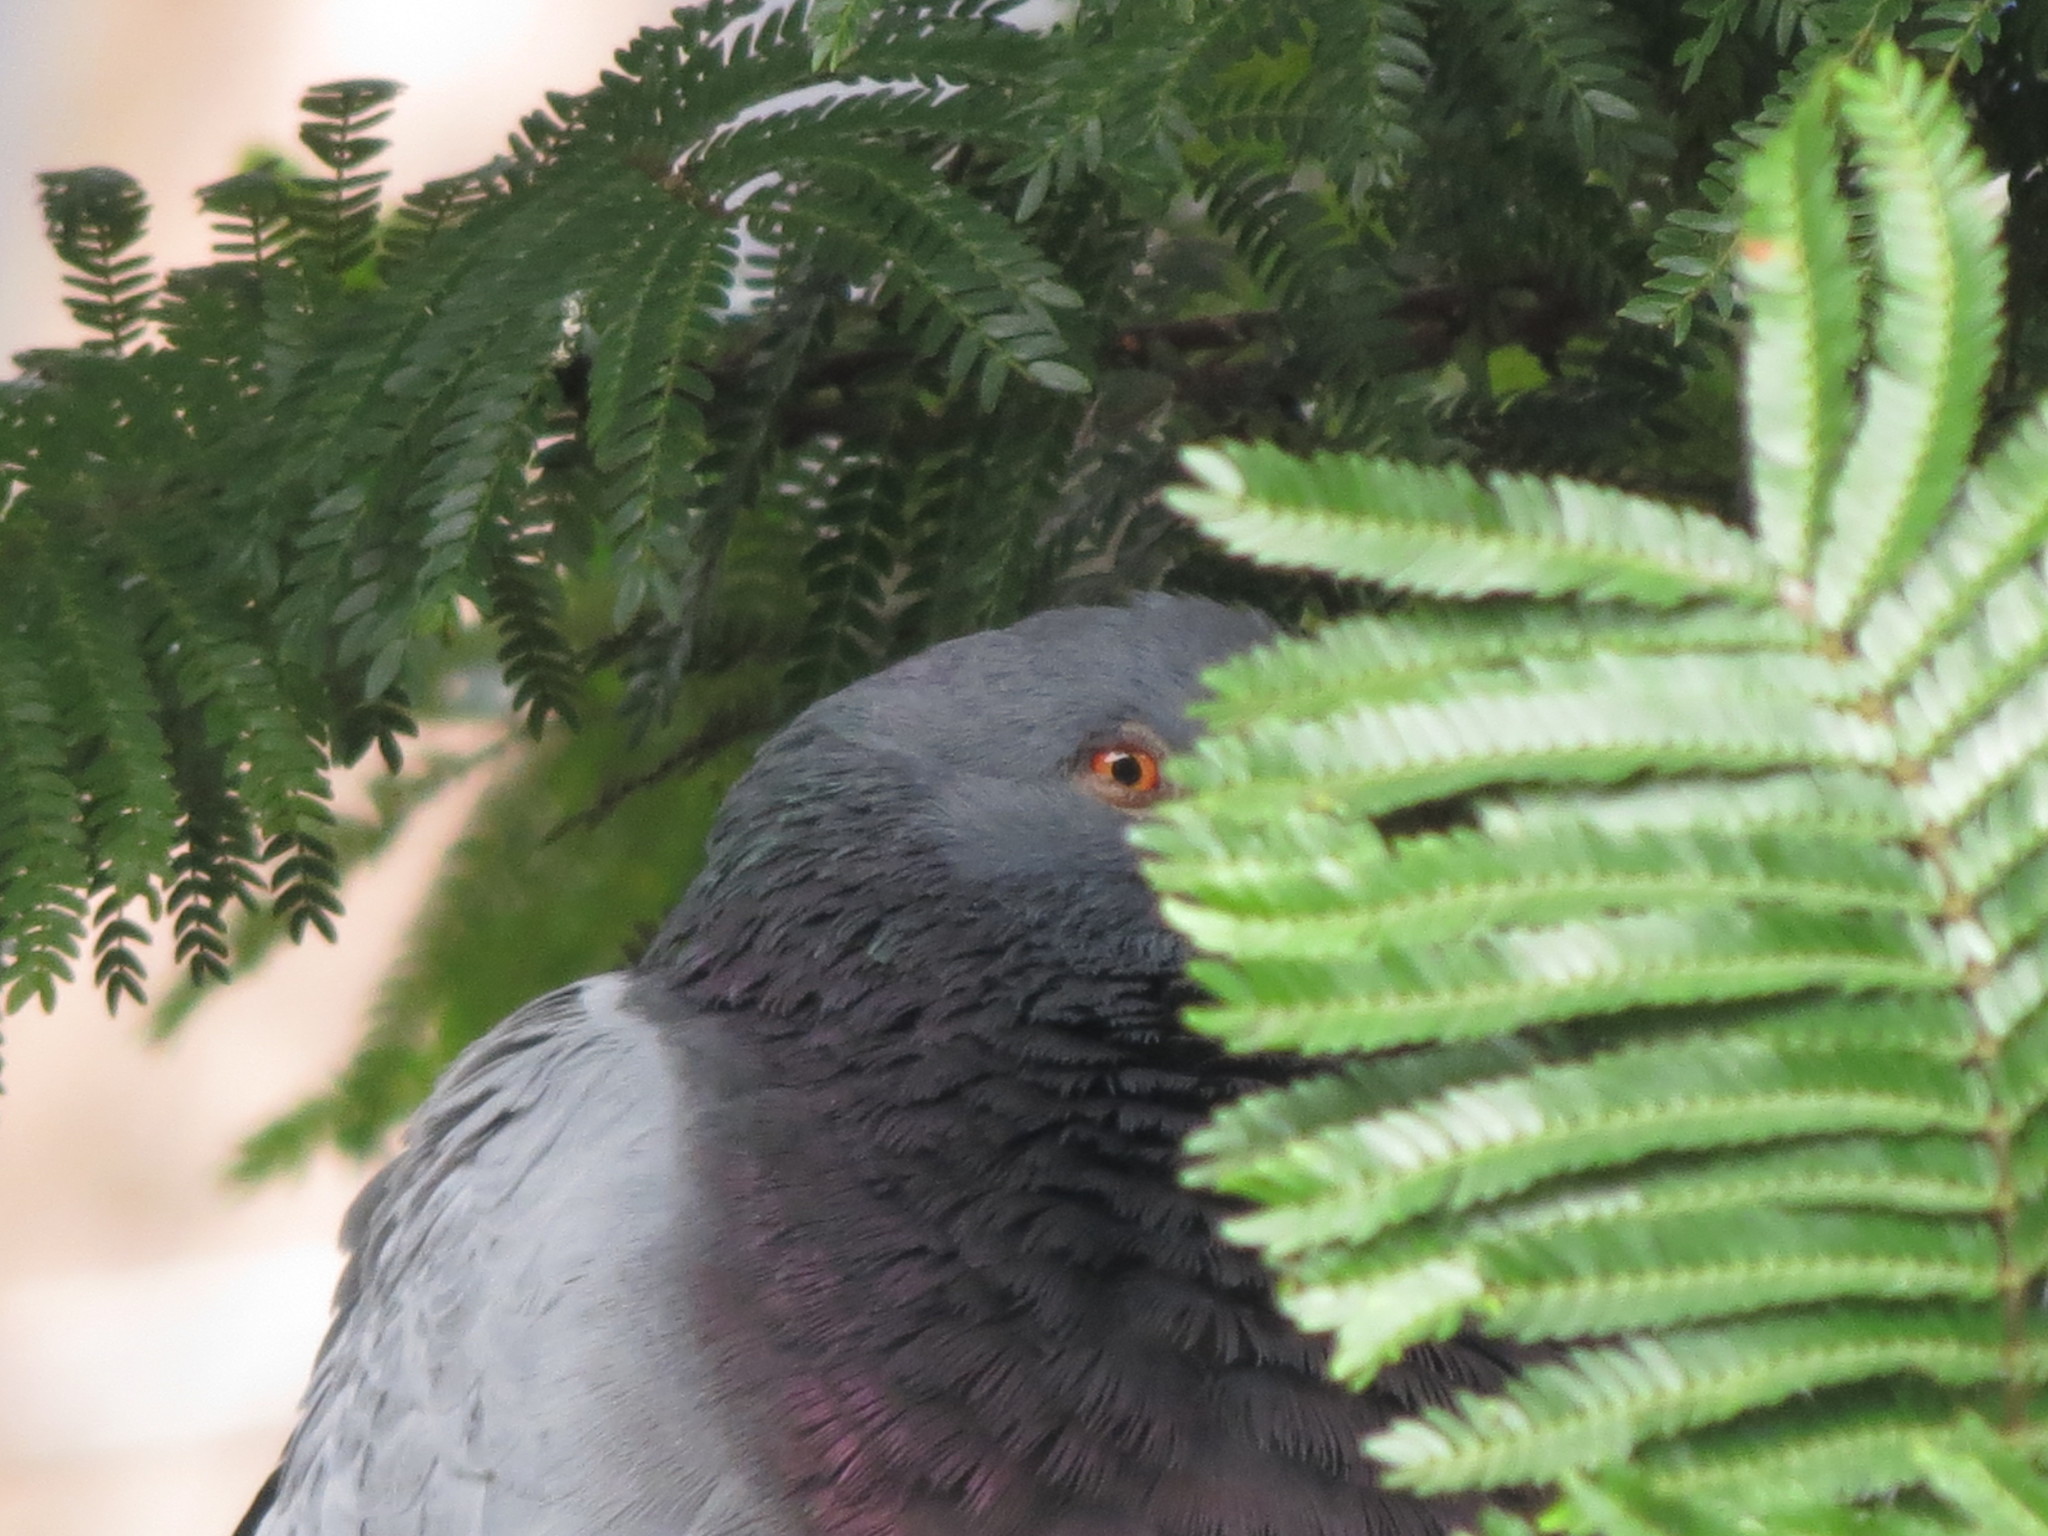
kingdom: Animalia
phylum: Chordata
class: Aves
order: Columbiformes
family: Columbidae
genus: Columba
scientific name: Columba livia
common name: Rock pigeon
